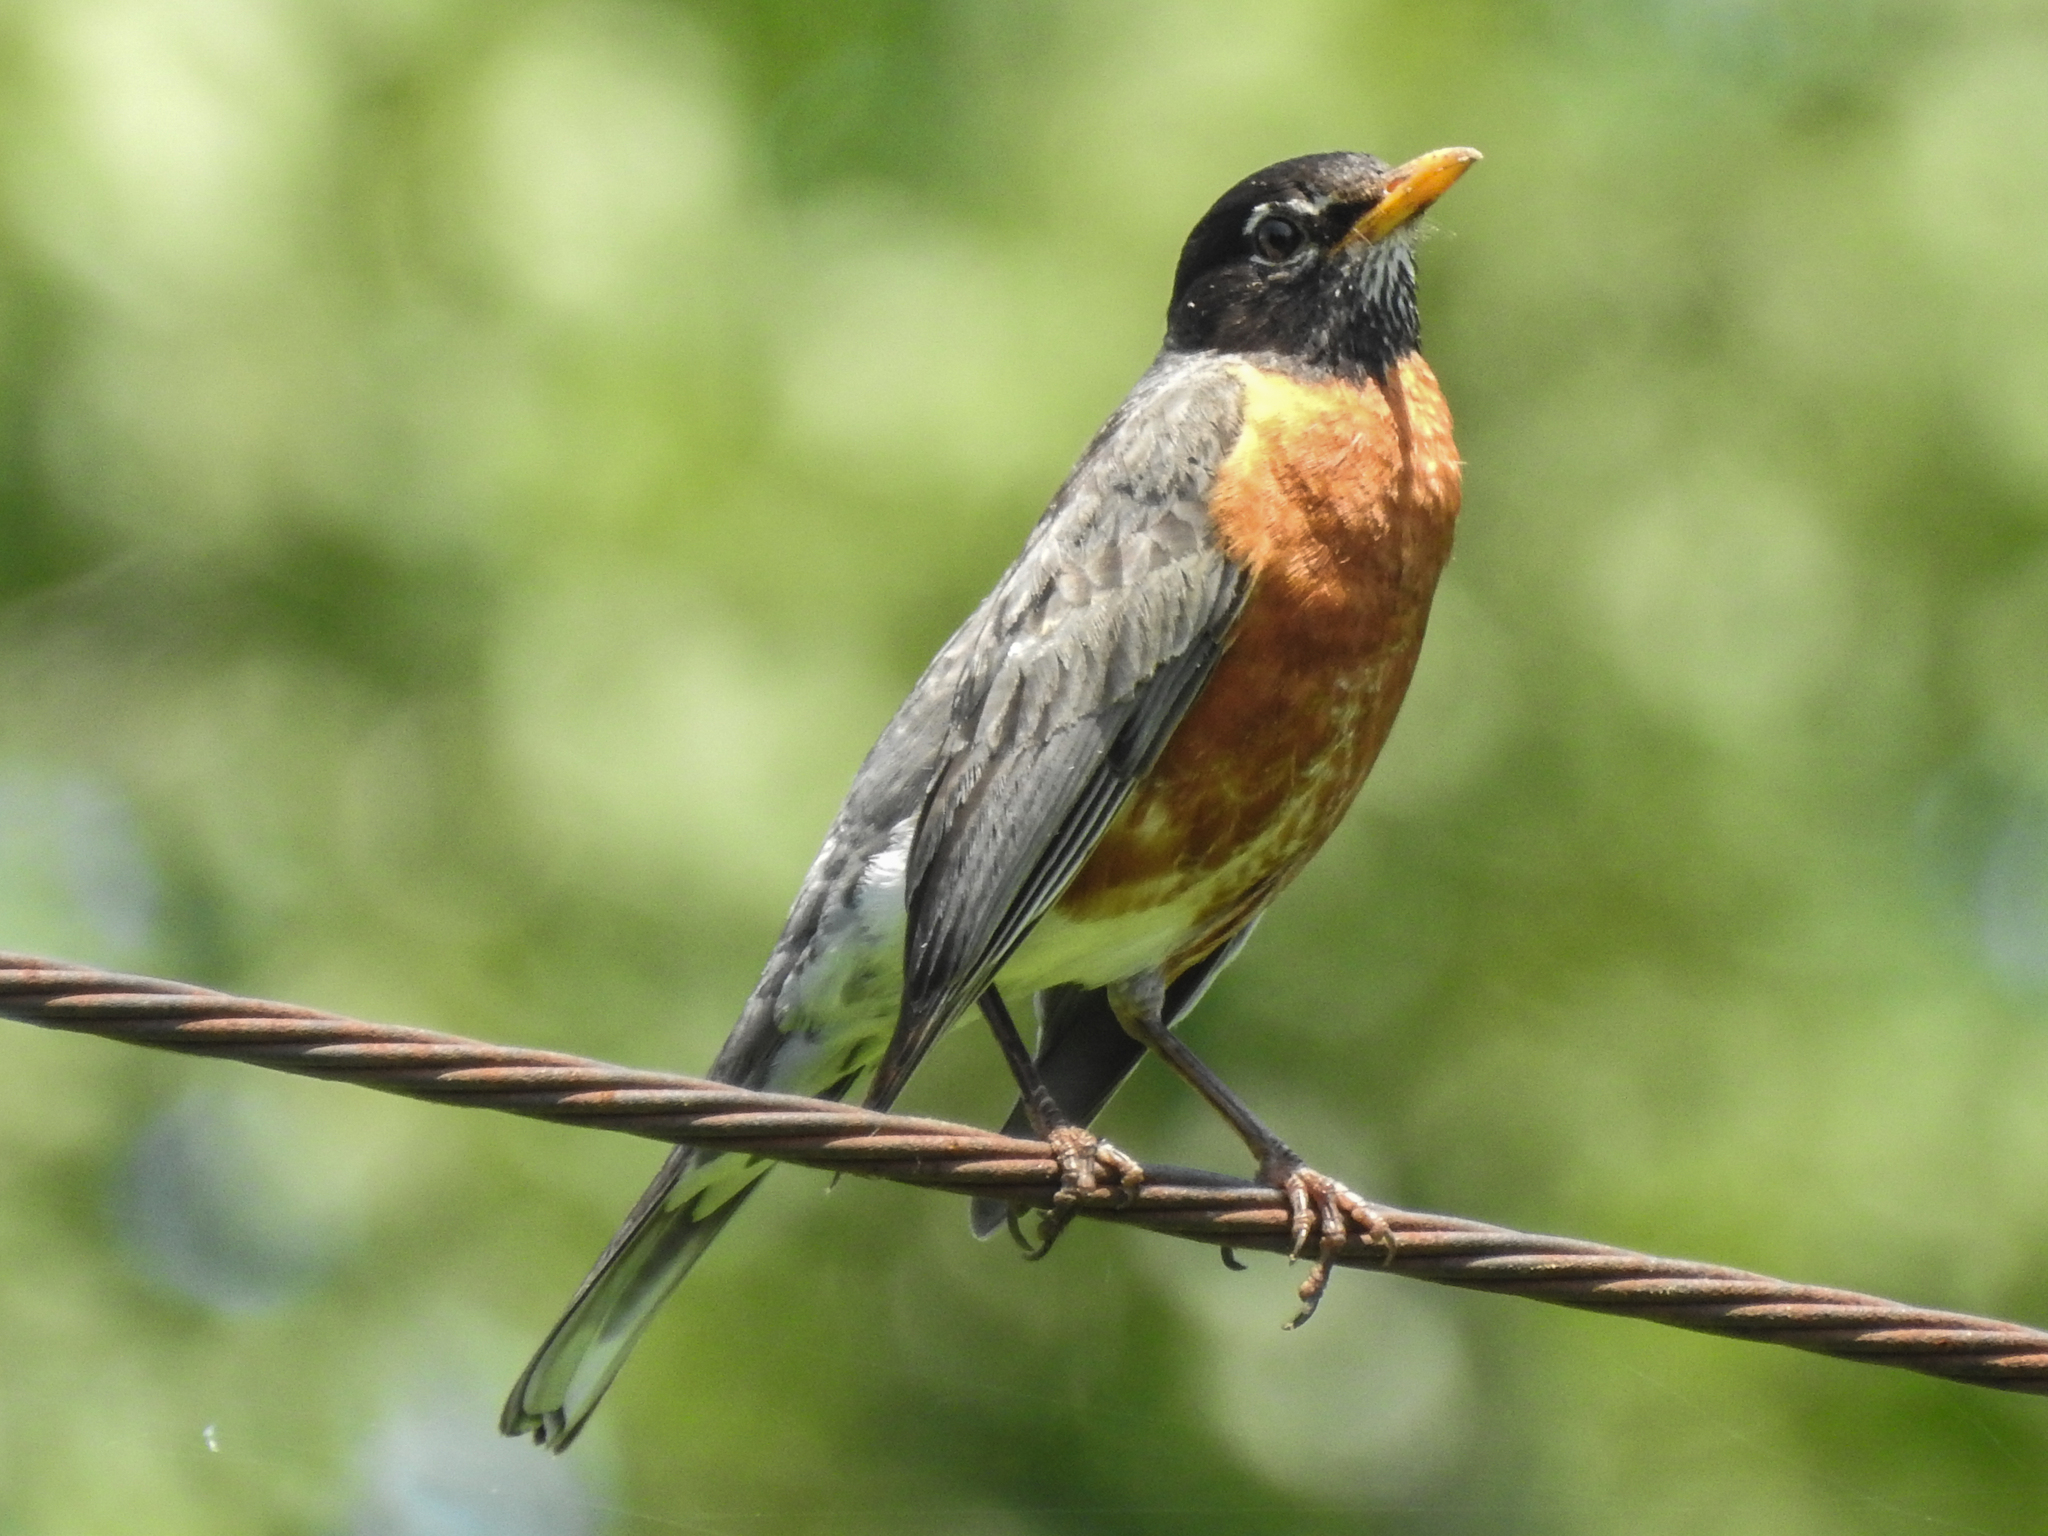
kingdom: Animalia
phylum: Chordata
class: Aves
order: Passeriformes
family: Turdidae
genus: Turdus
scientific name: Turdus migratorius
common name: American robin
